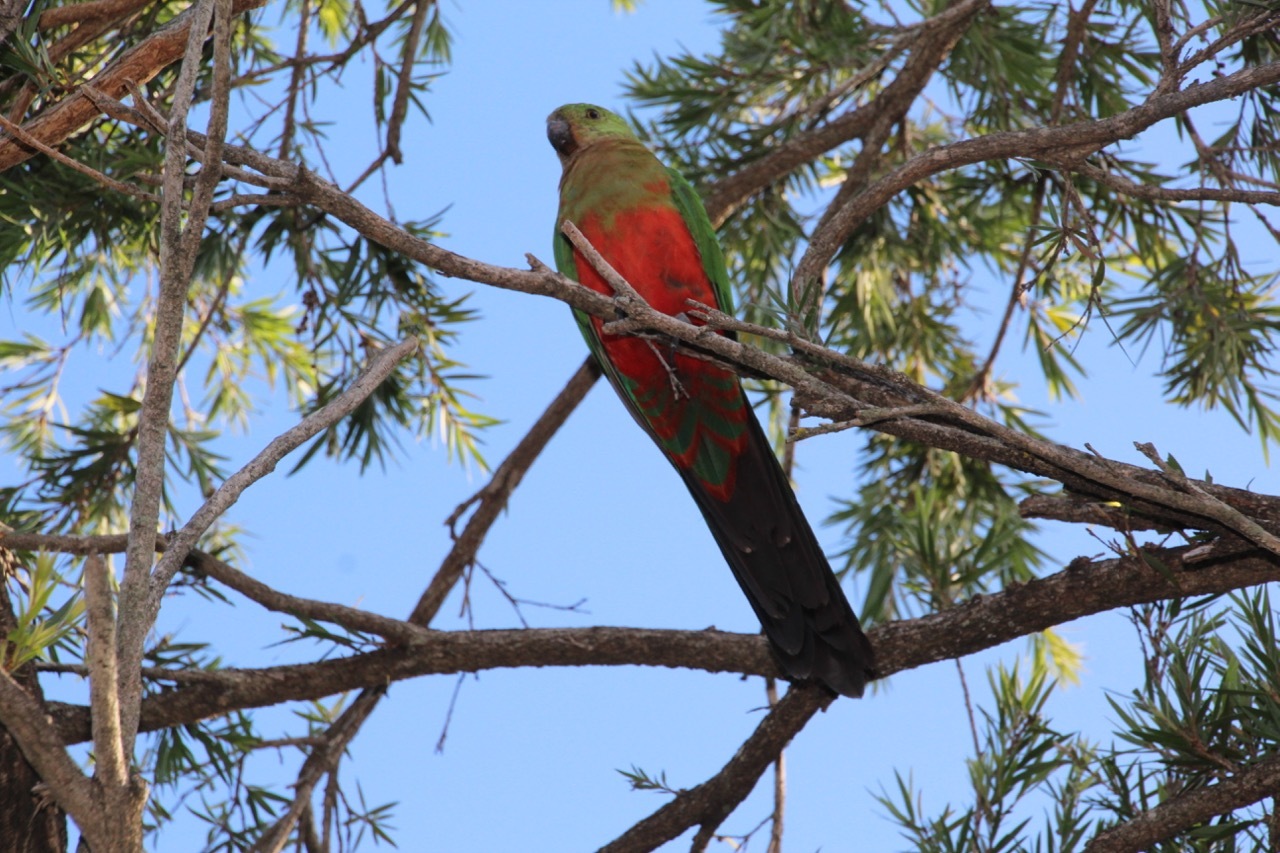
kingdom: Animalia
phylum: Chordata
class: Aves
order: Psittaciformes
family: Psittacidae
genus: Alisterus
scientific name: Alisterus scapularis
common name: Australian king parrot
